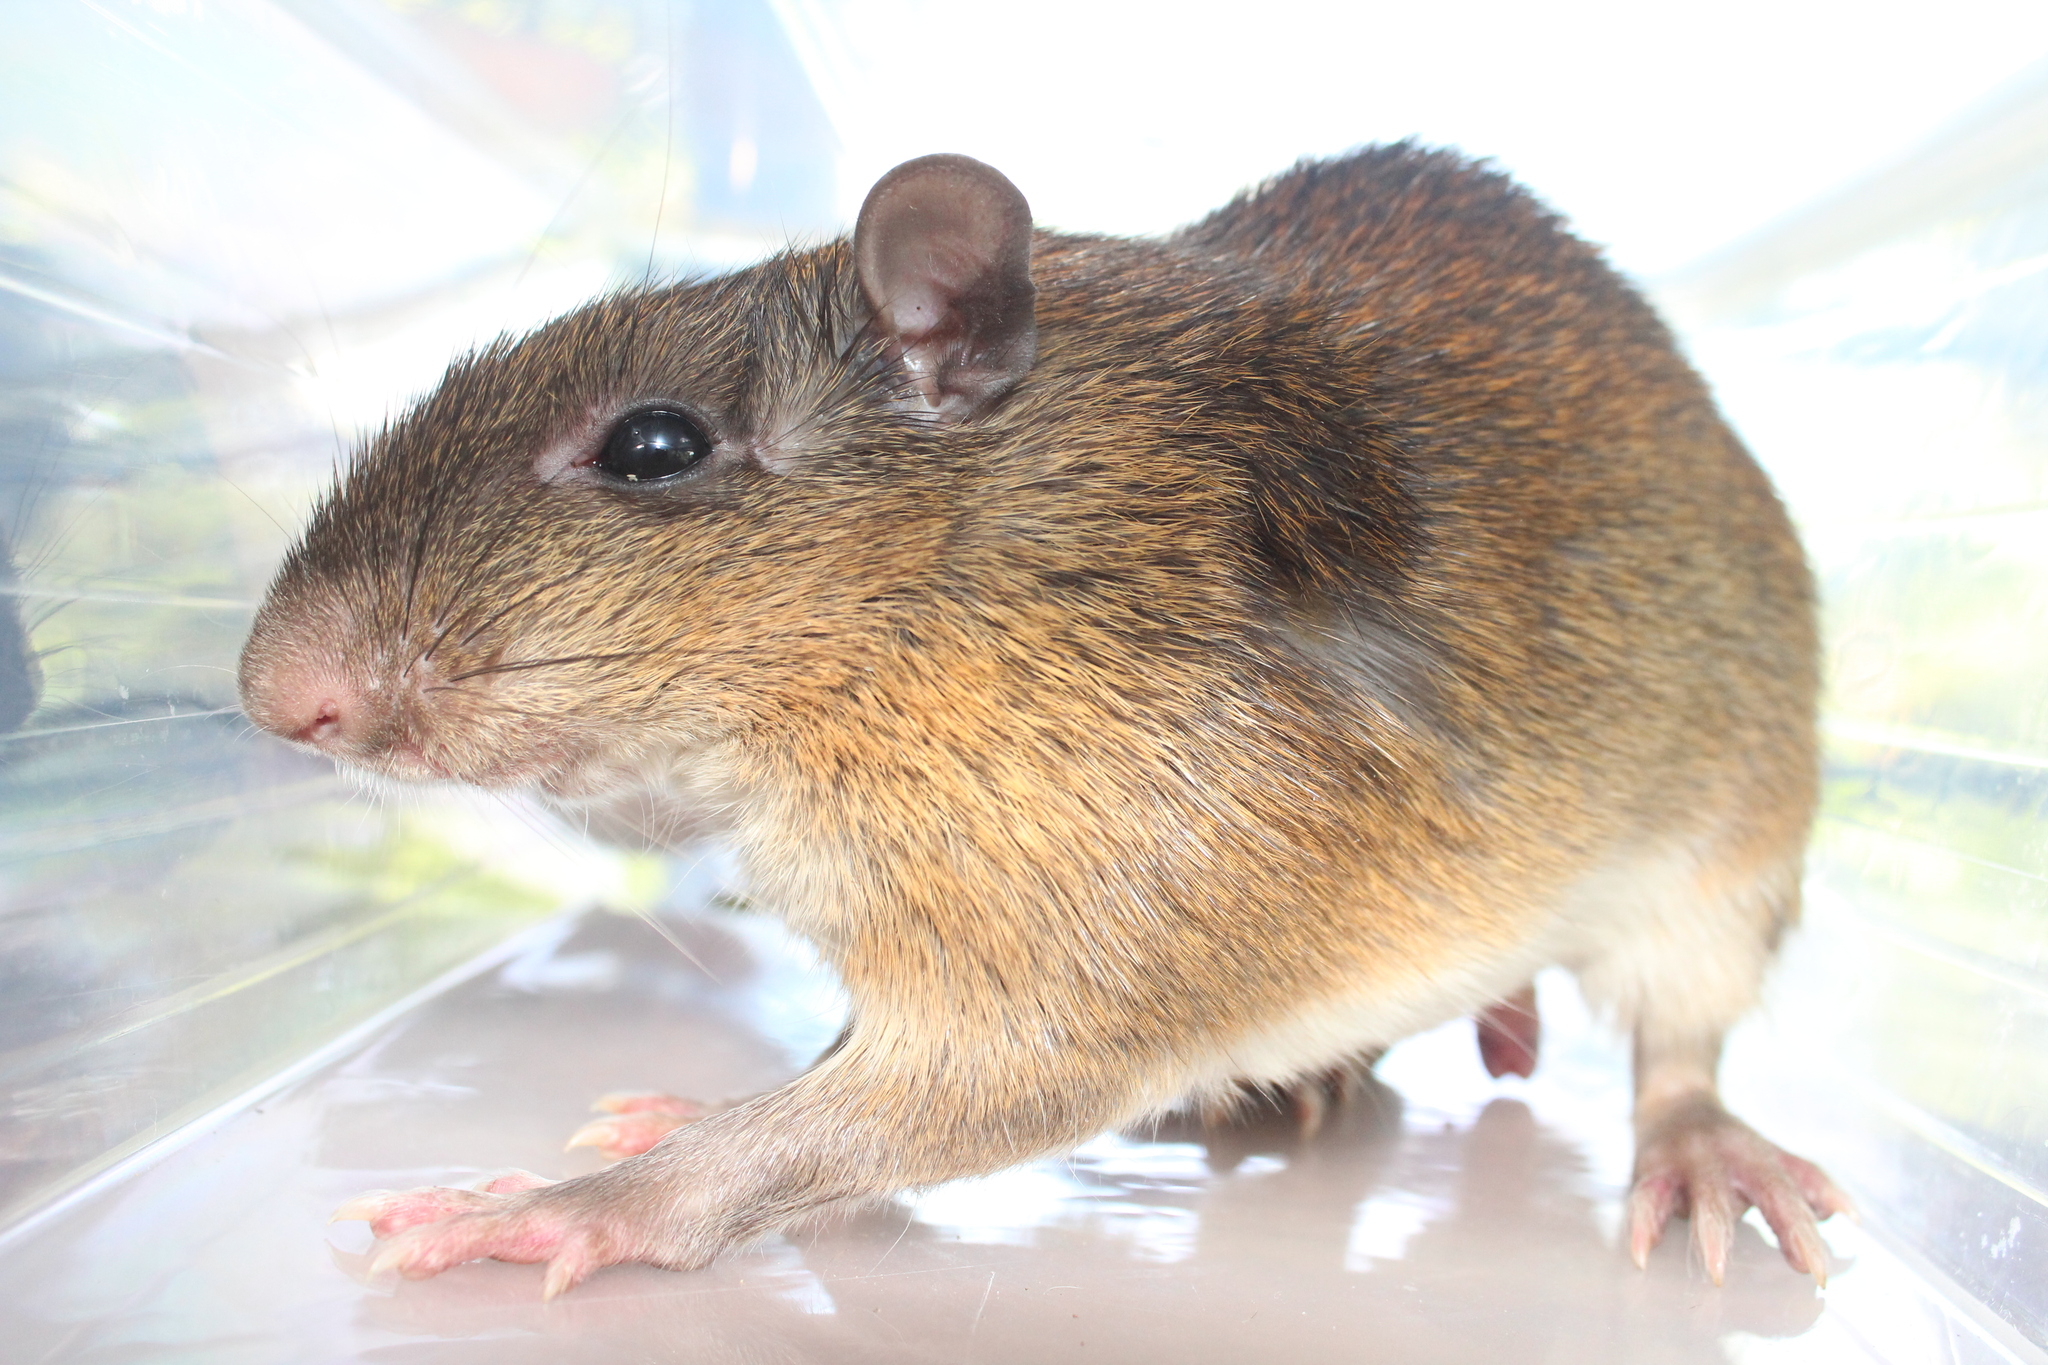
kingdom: Animalia
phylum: Chordata
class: Mammalia
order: Rodentia
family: Echimyidae
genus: Proechimys
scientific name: Proechimys semispinosus
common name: Tome's spiny rat
